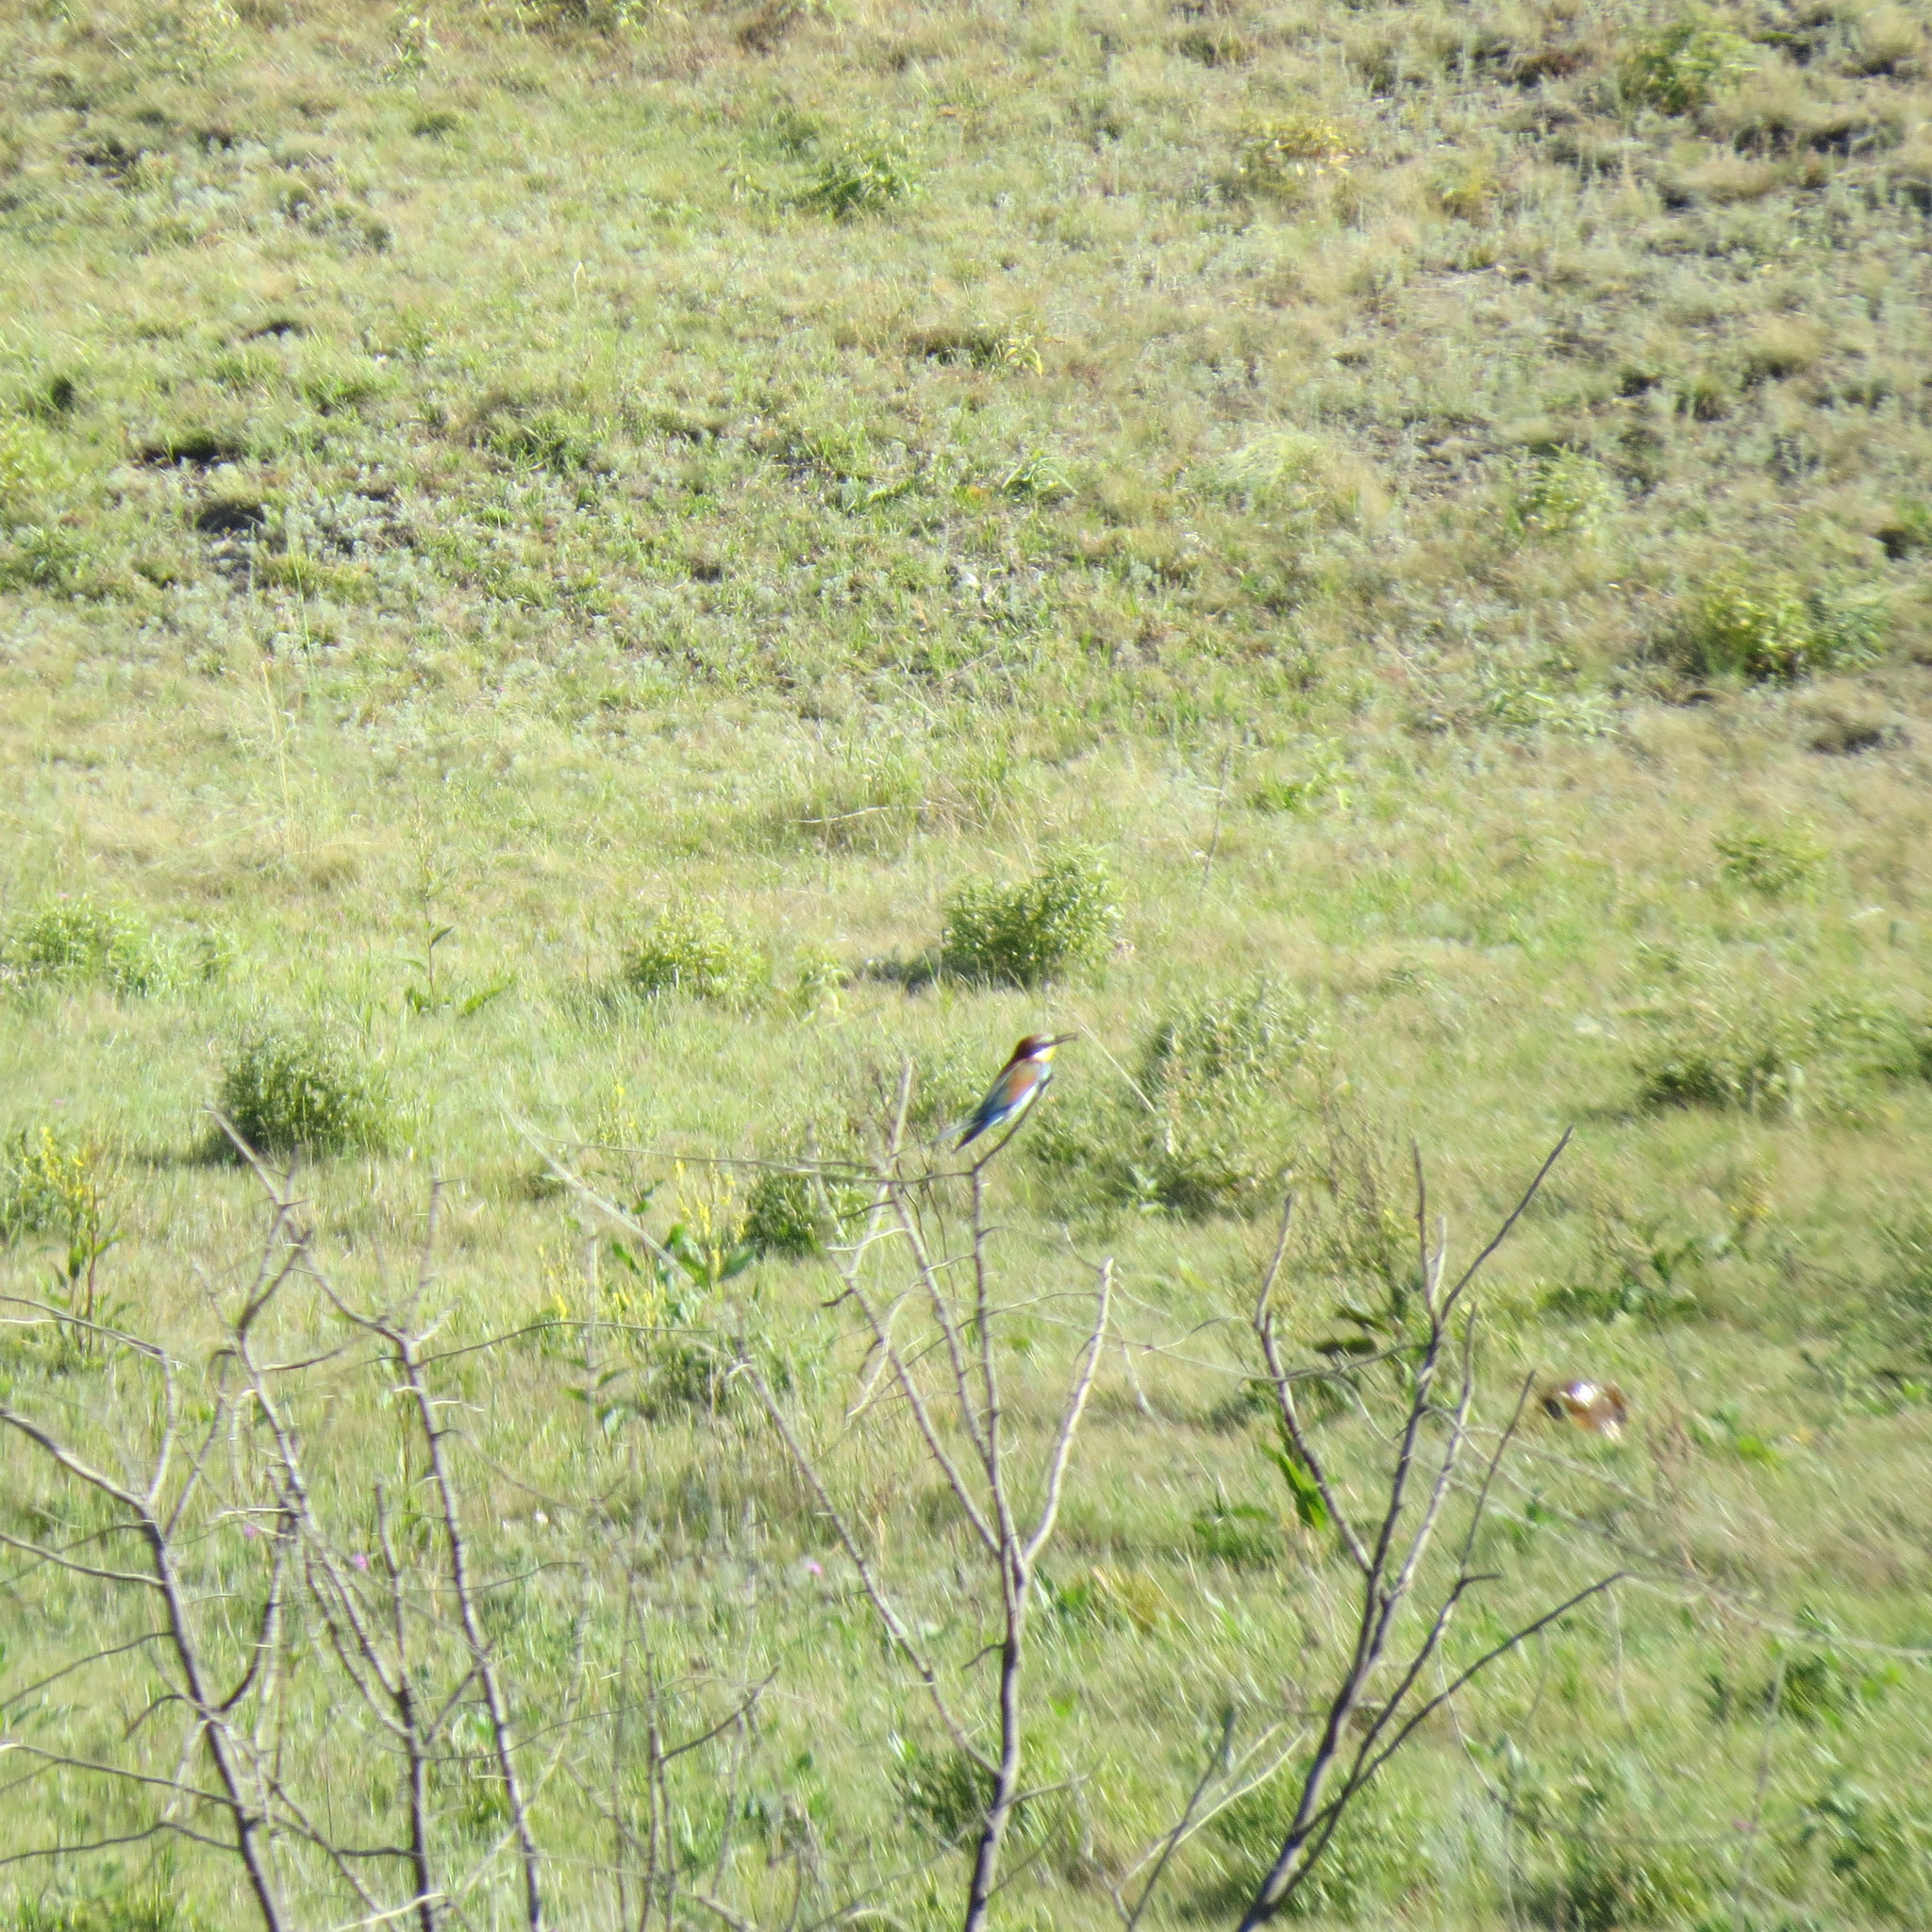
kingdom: Animalia
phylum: Chordata
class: Aves
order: Coraciiformes
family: Meropidae
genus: Merops
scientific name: Merops apiaster
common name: European bee-eater
